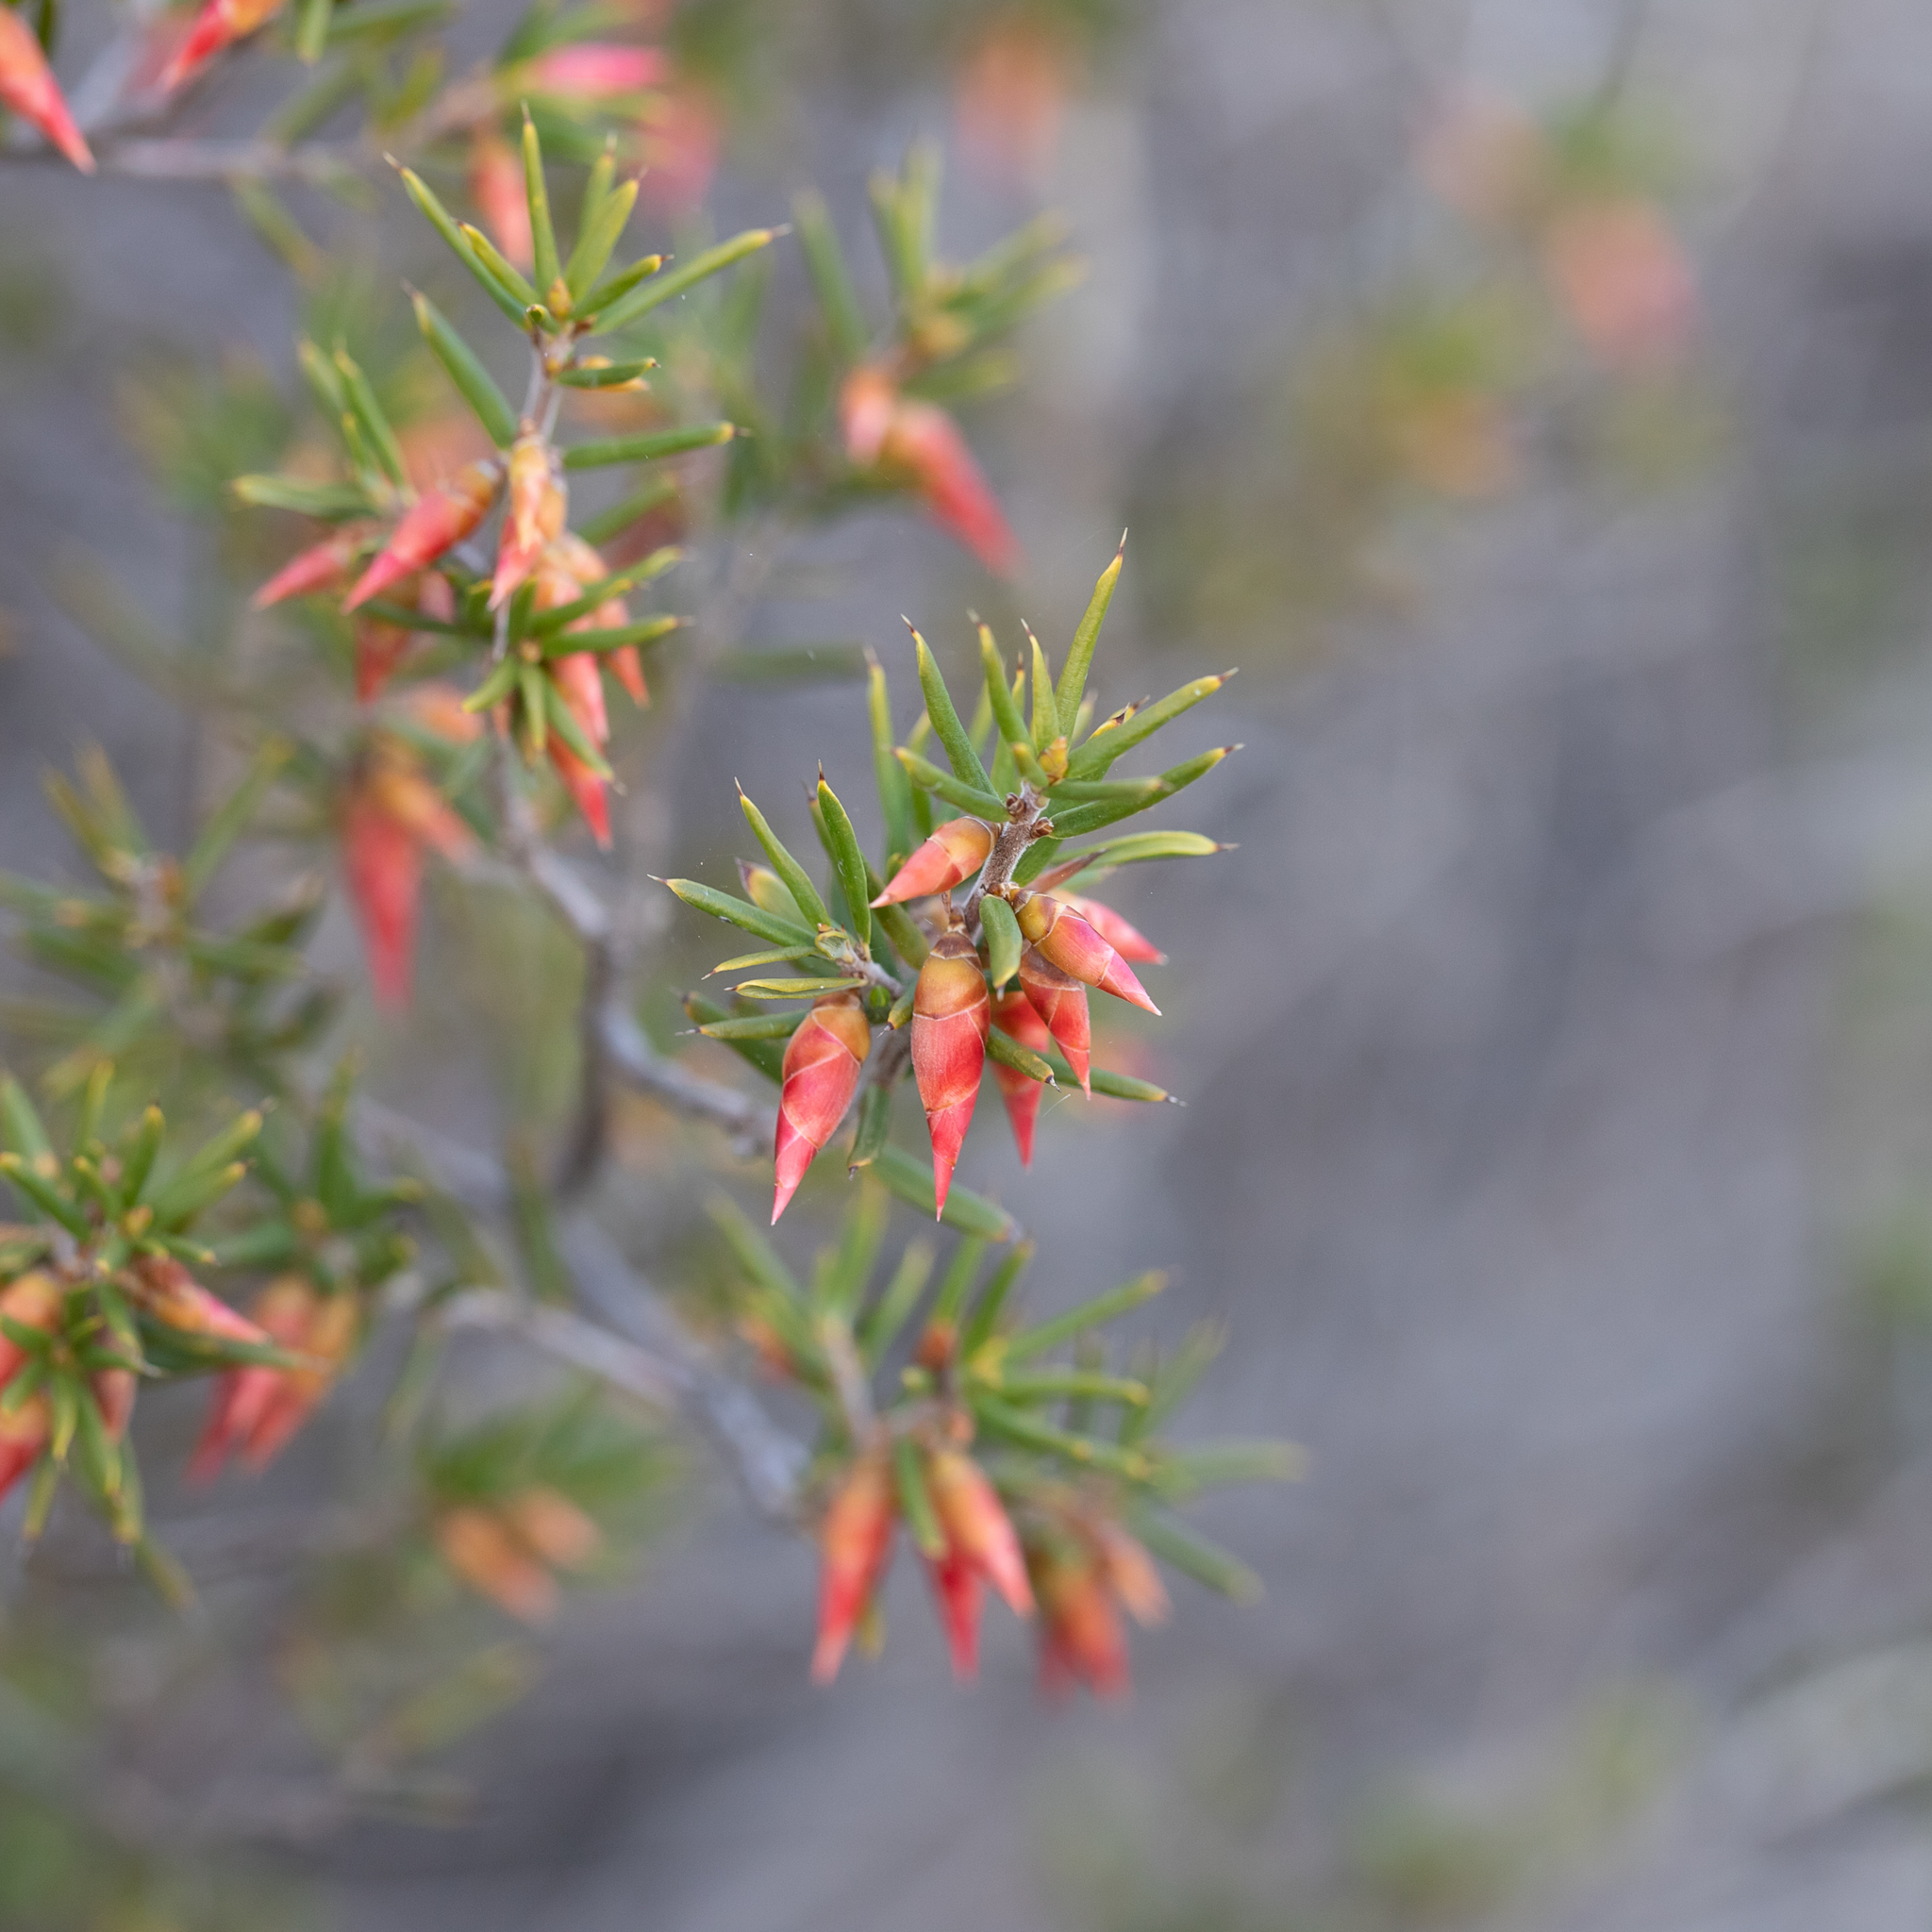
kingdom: Plantae
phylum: Tracheophyta
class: Magnoliopsida
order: Ericales
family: Ericaceae
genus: Stenanthera
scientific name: Stenanthera conostephioides
